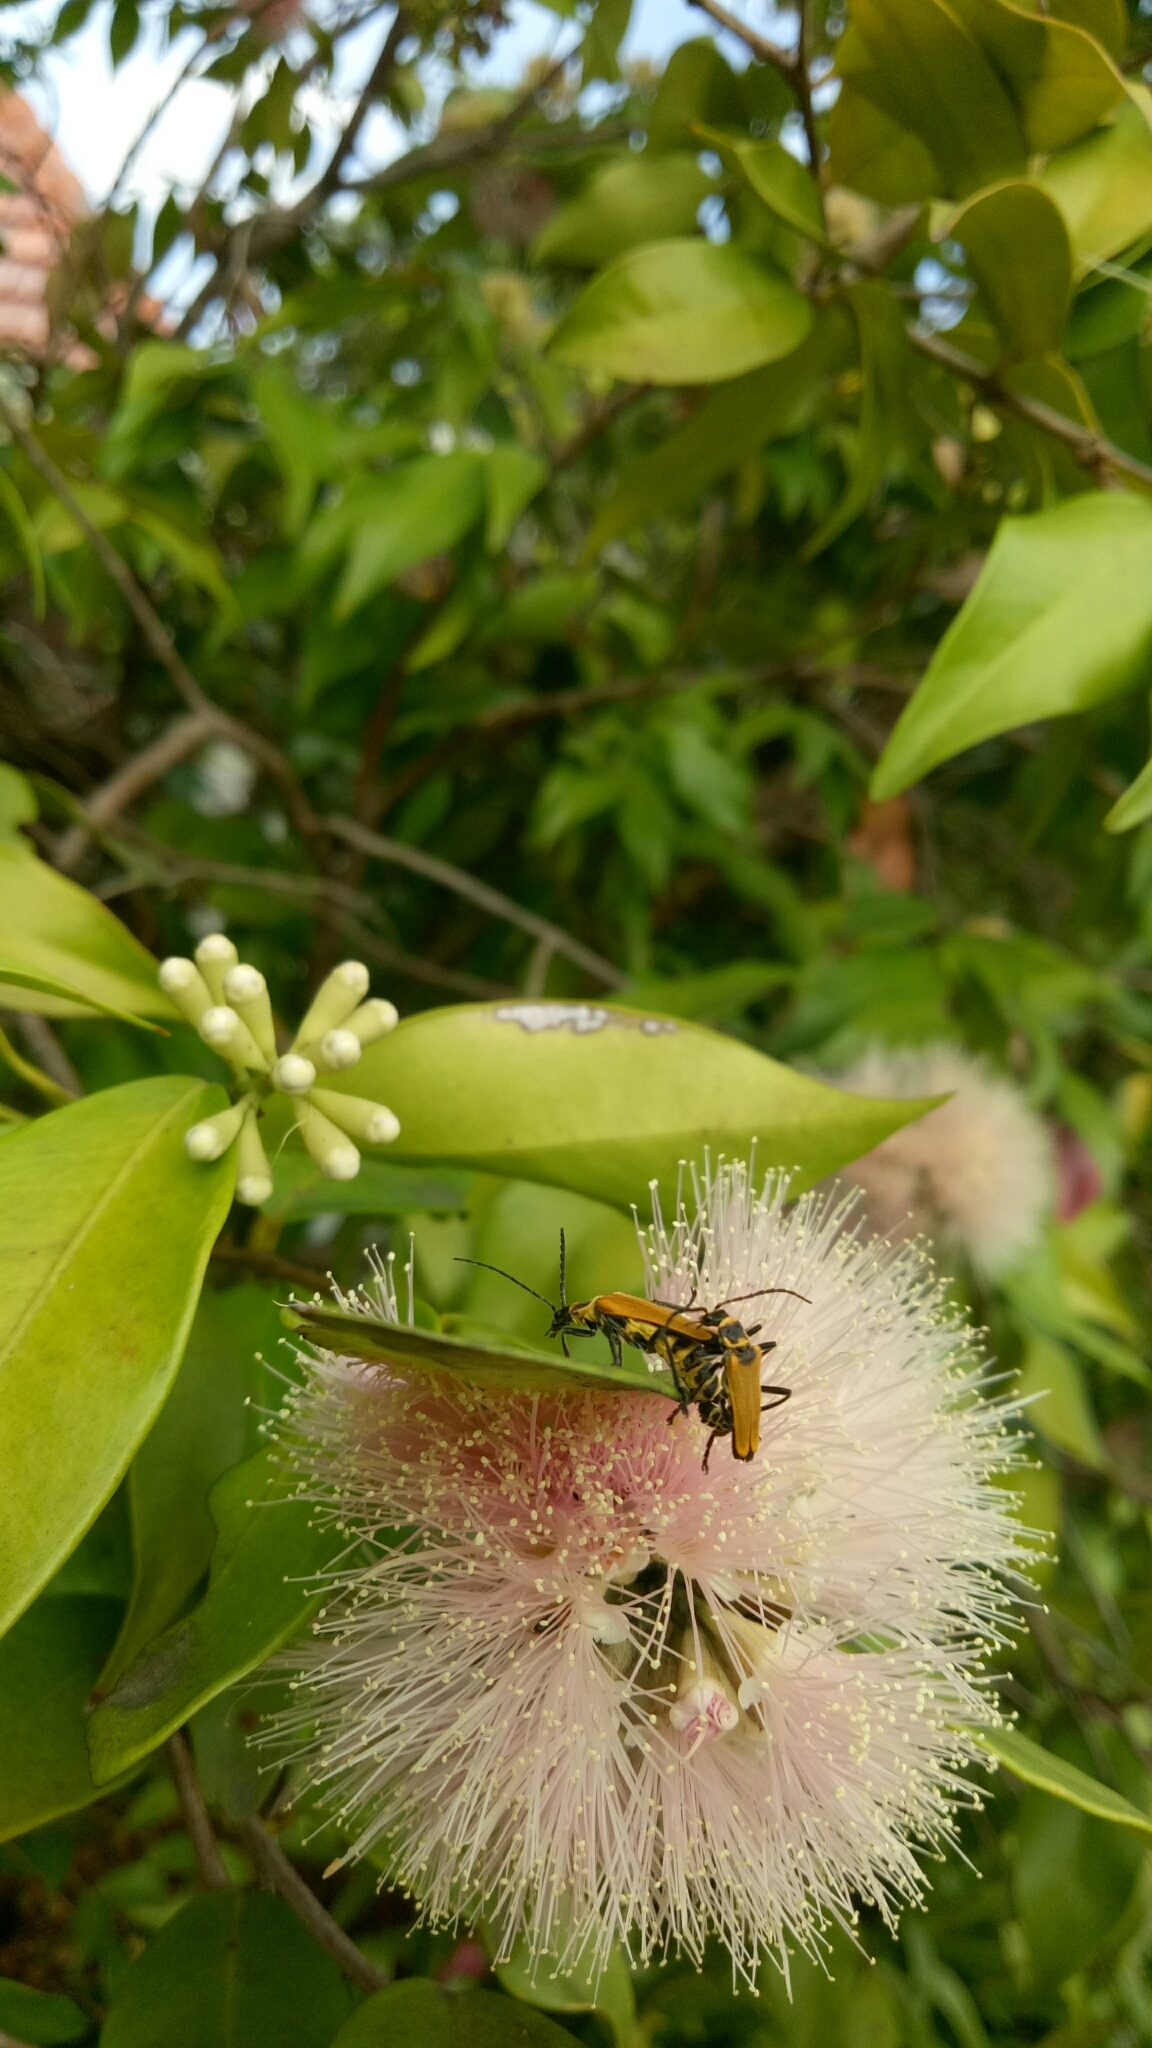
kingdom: Animalia
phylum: Arthropoda
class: Insecta
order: Coleoptera
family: Cantharidae
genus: Chauliognathus
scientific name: Chauliognathus
